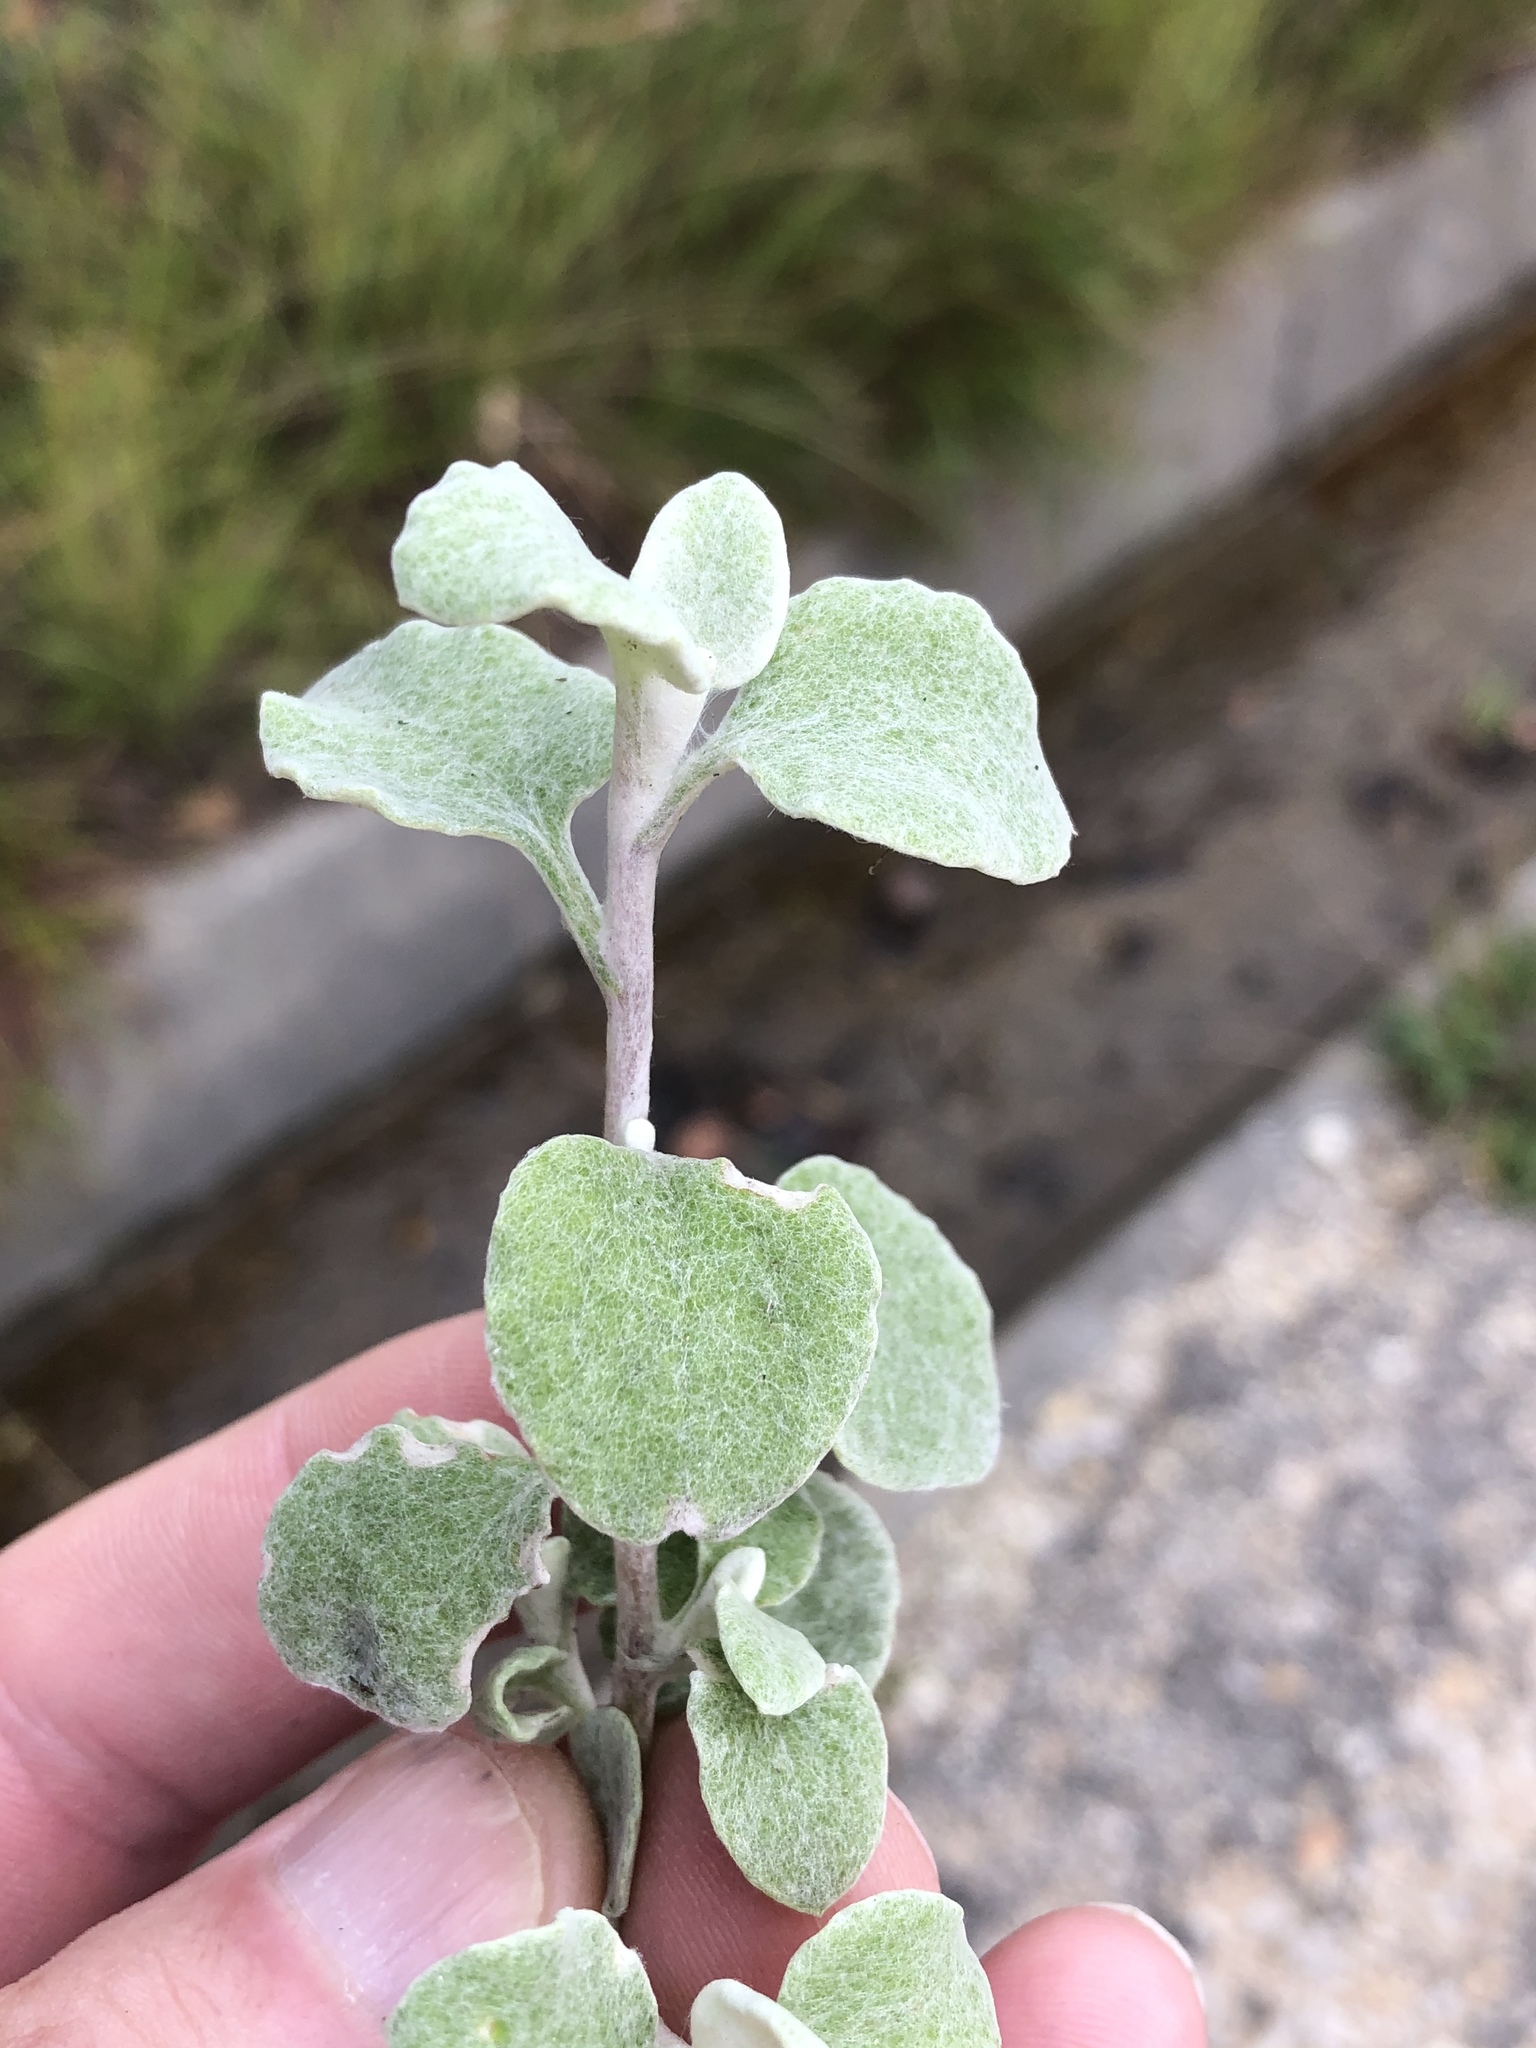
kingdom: Plantae
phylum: Tracheophyta
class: Magnoliopsida
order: Asterales
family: Asteraceae
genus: Helichrysum
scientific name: Helichrysum petiolare
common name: Licorice-plant
